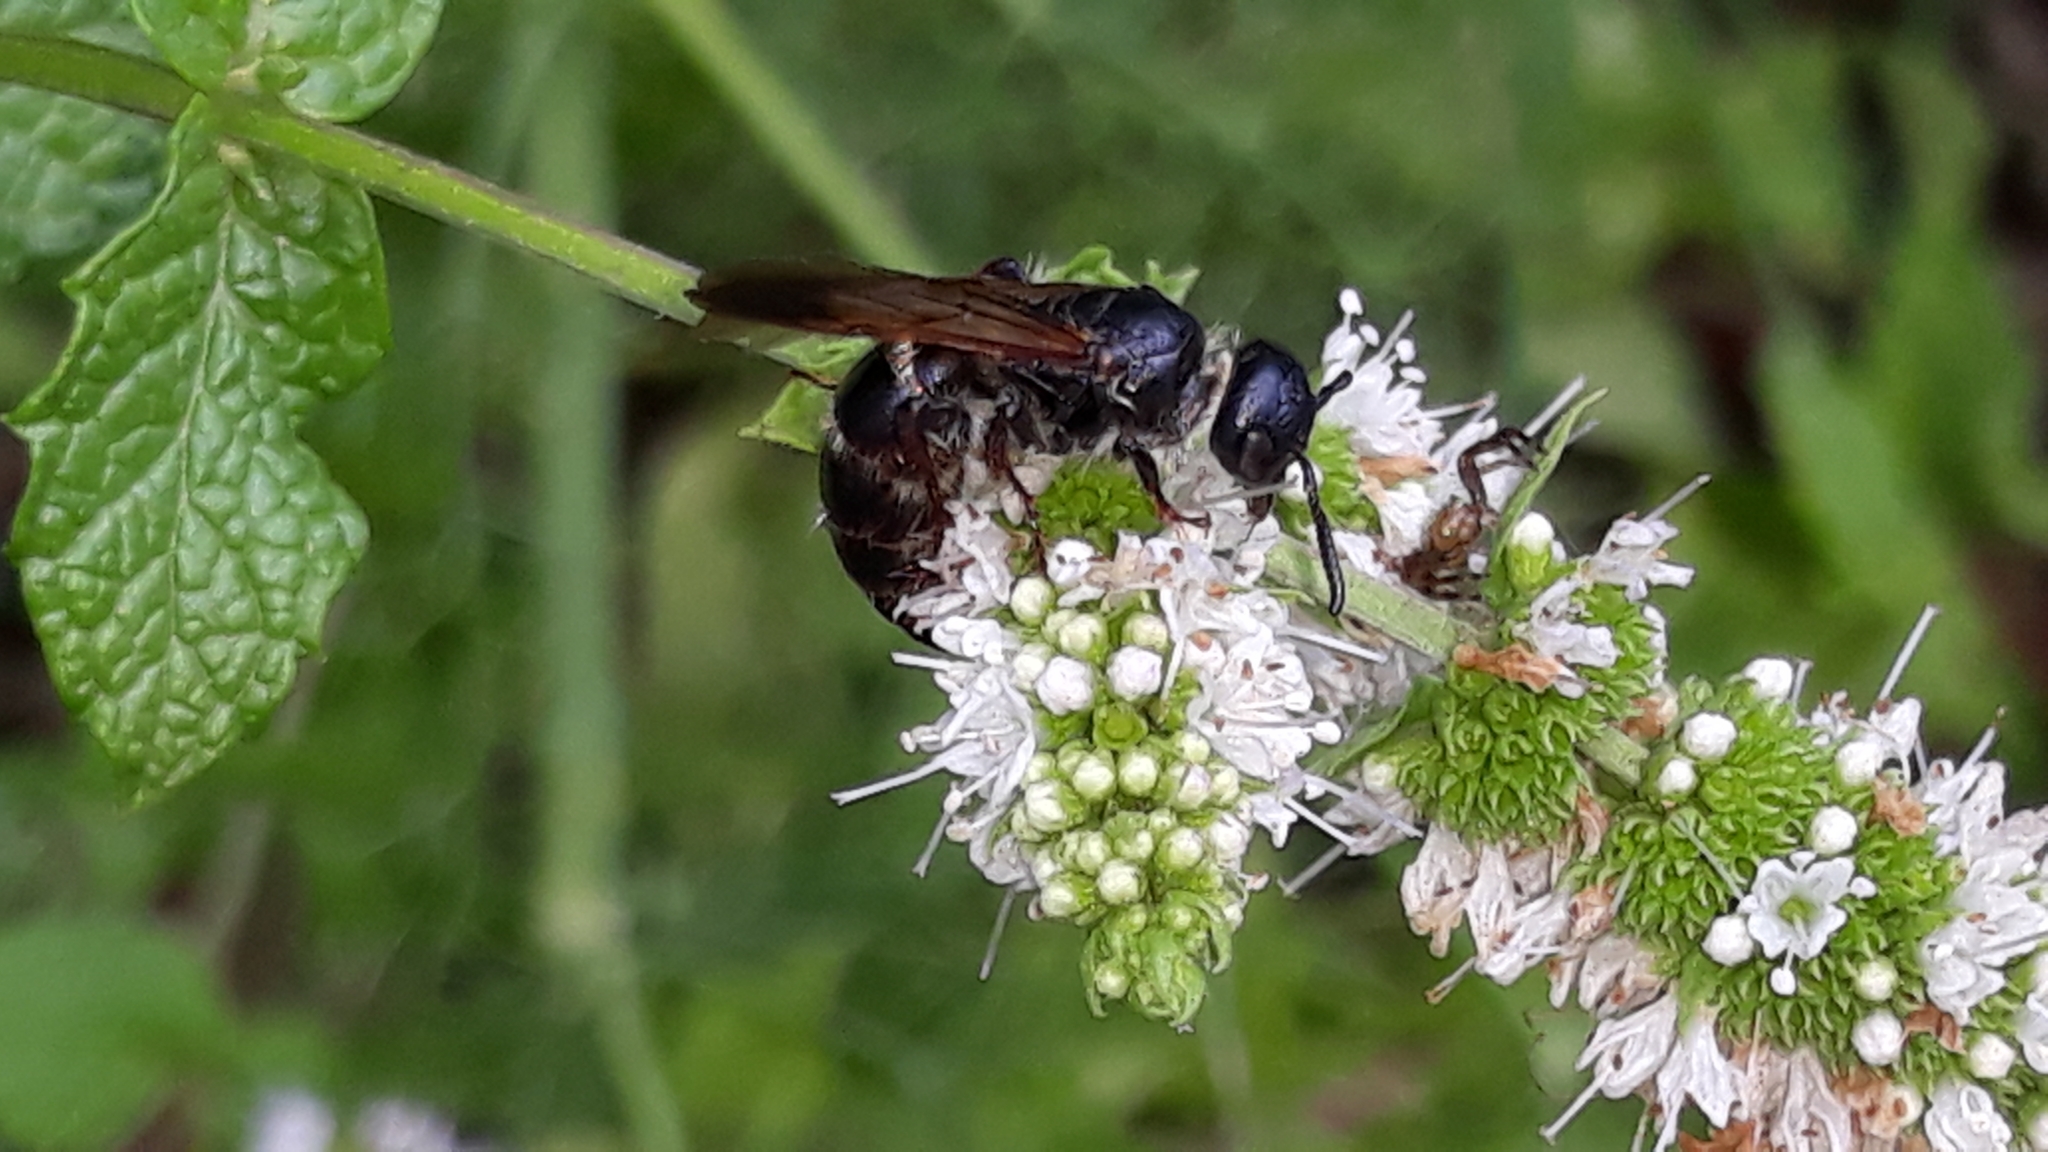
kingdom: Animalia
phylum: Arthropoda
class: Insecta
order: Hymenoptera
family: Scoliidae
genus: Colpa
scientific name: Colpa quinquecincta
